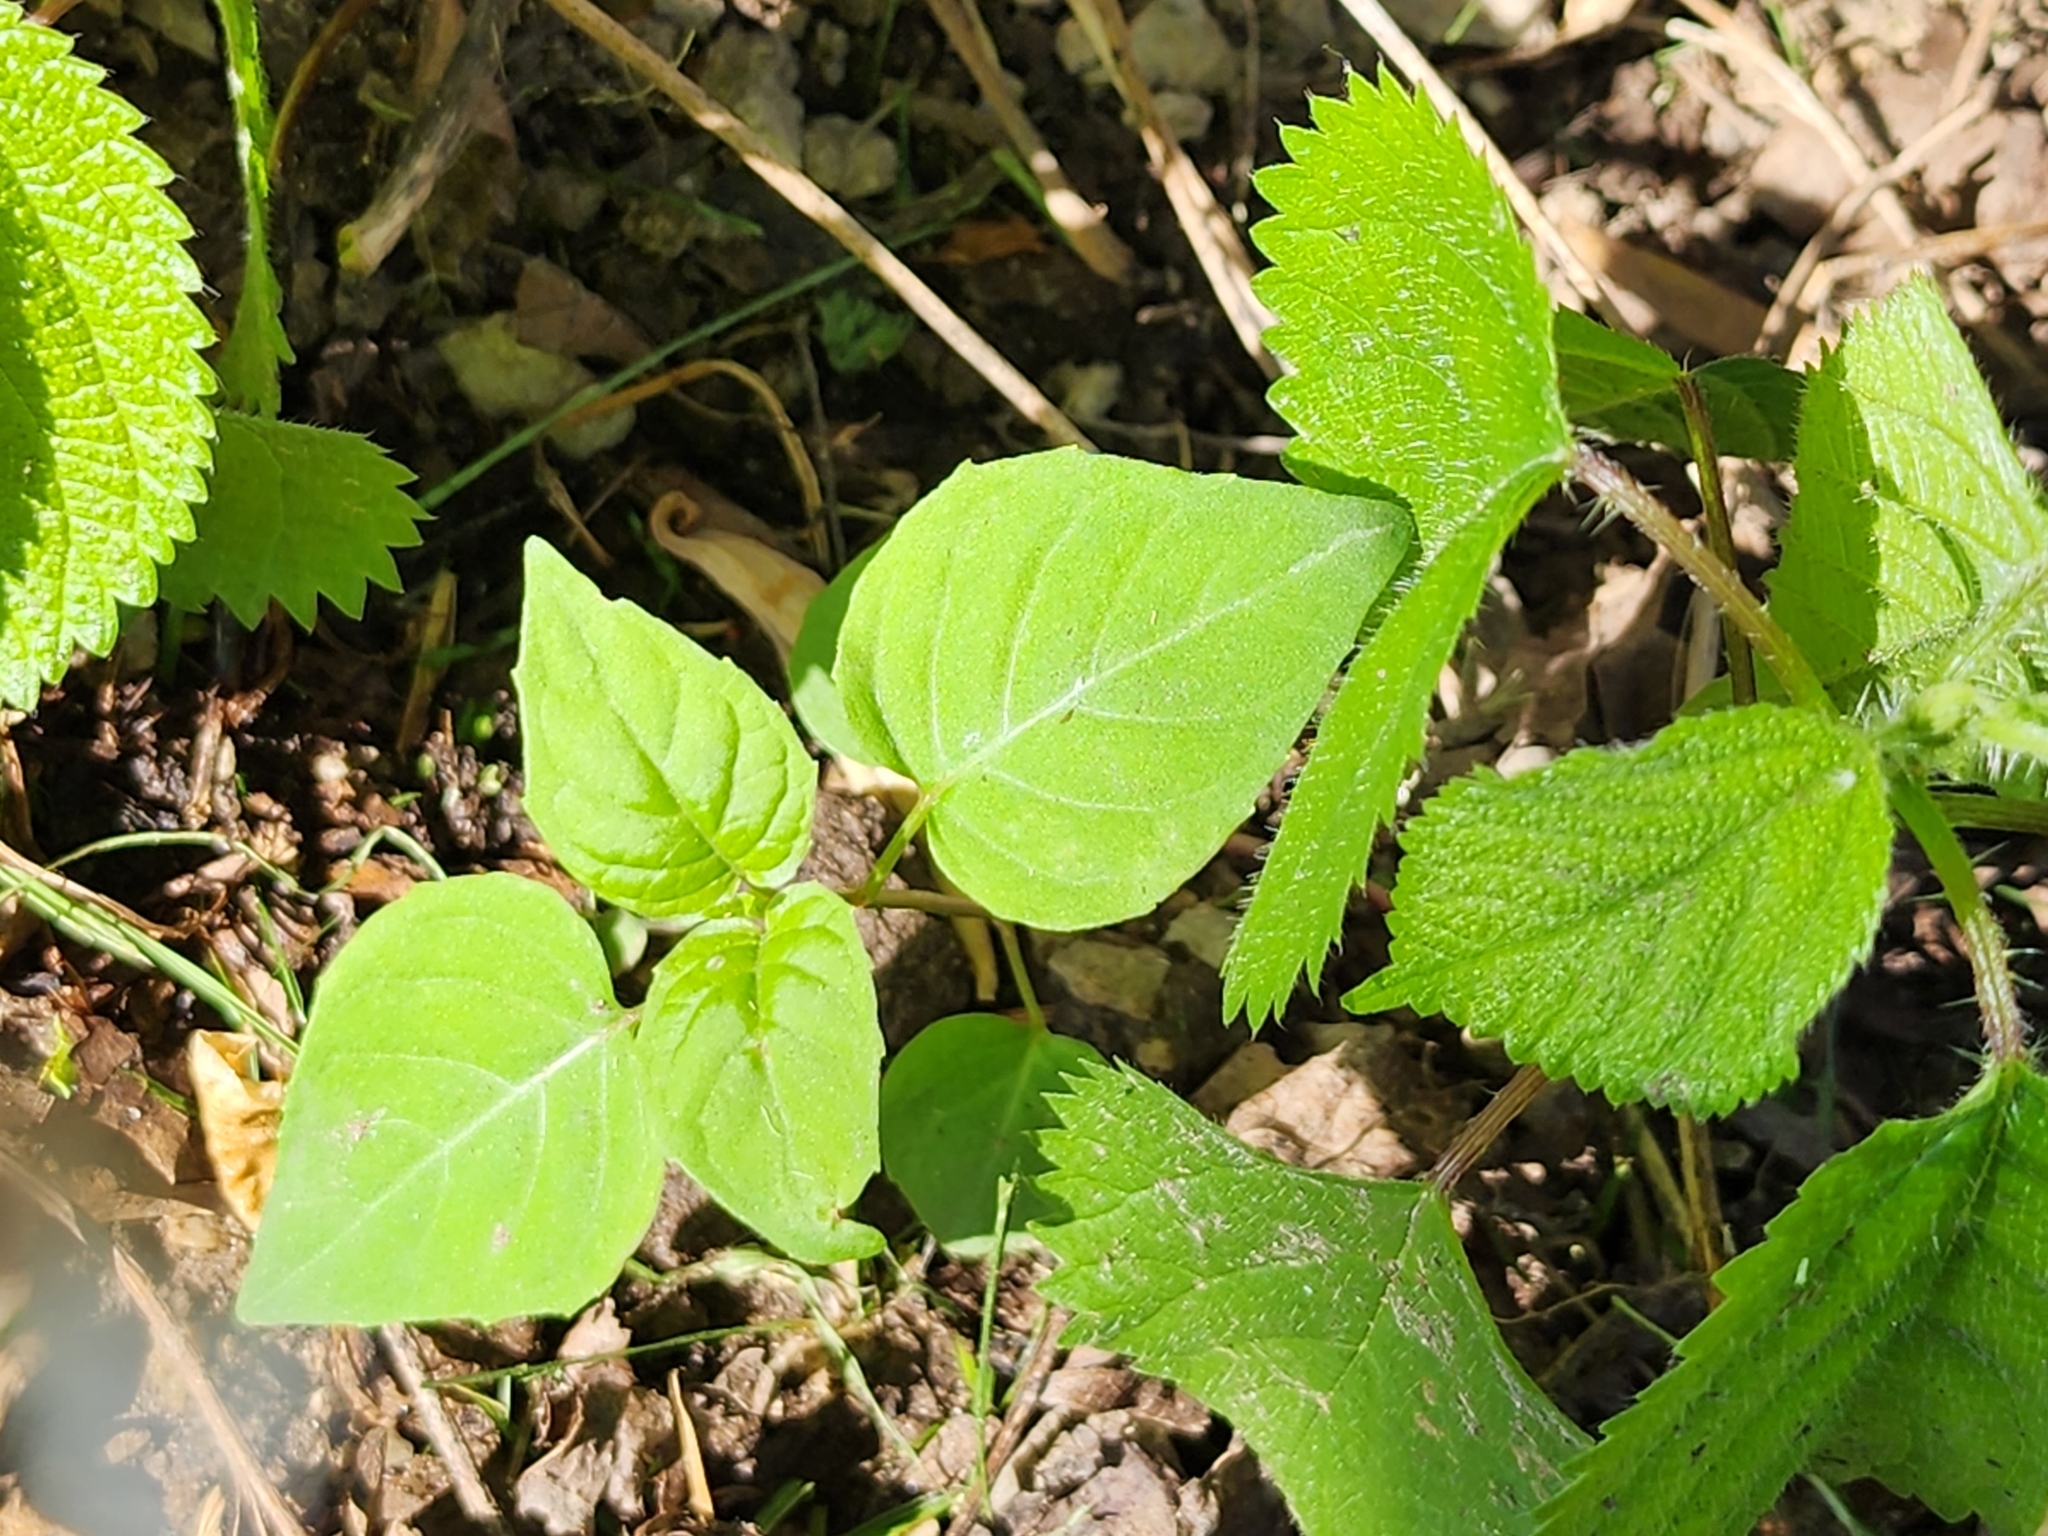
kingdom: Plantae
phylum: Tracheophyta
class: Magnoliopsida
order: Myrtales
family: Onagraceae
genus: Circaea
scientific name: Circaea canadensis
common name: Broad-leaved enchanter's nightshade
